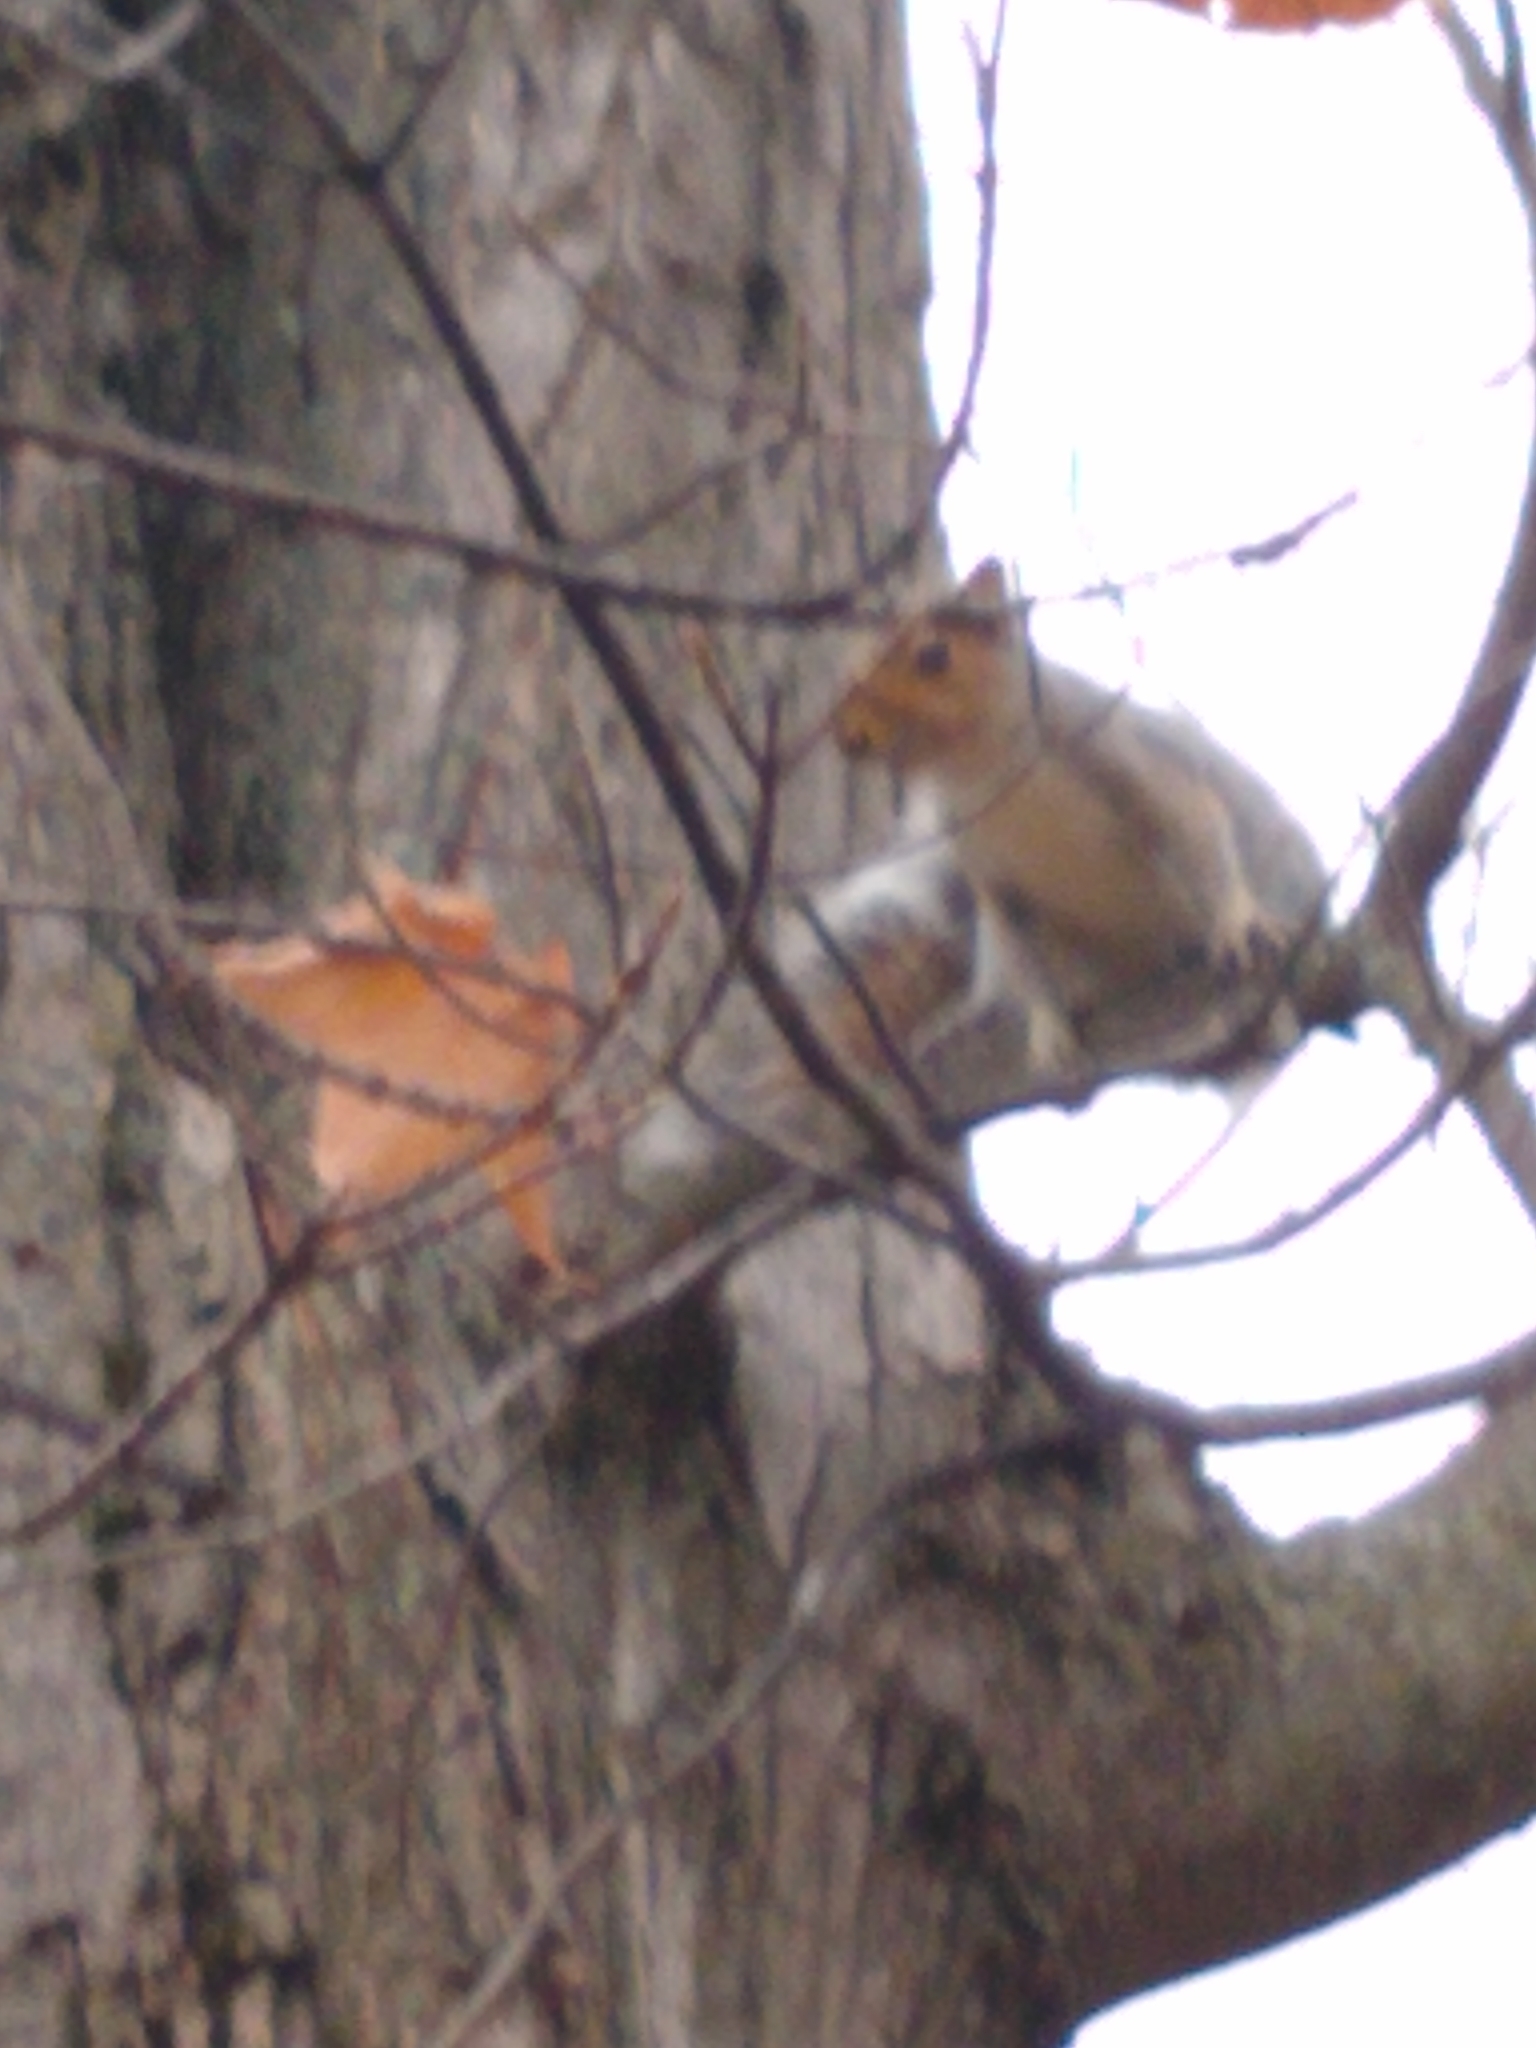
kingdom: Animalia
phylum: Chordata
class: Mammalia
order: Rodentia
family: Sciuridae
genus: Sciurus
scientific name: Sciurus carolinensis
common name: Eastern gray squirrel
